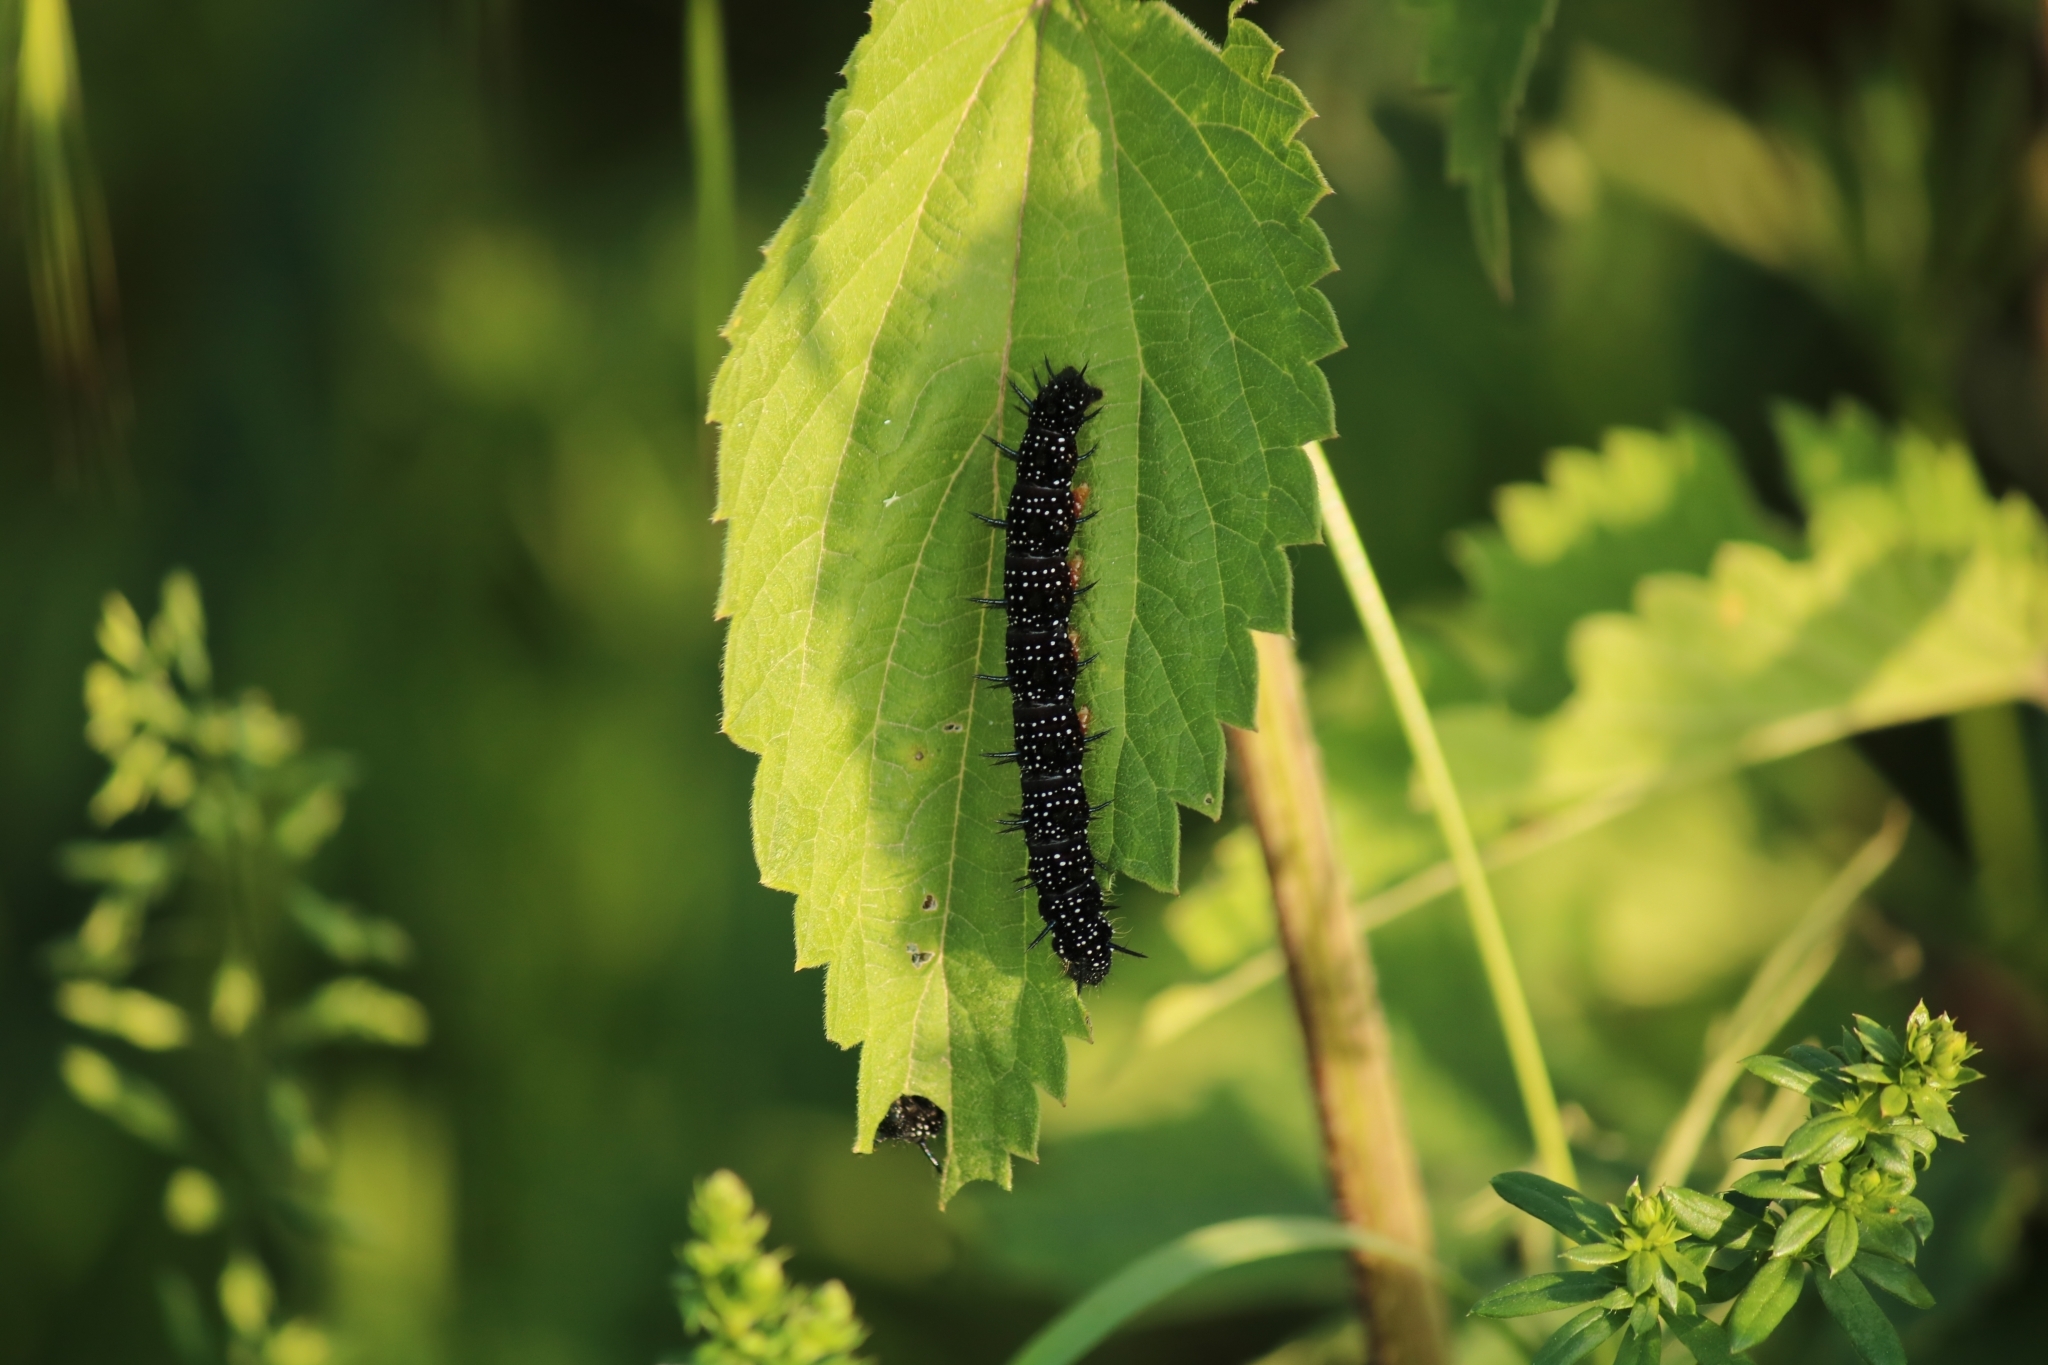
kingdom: Animalia
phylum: Arthropoda
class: Insecta
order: Lepidoptera
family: Nymphalidae
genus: Aglais
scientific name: Aglais io
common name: Peacock
